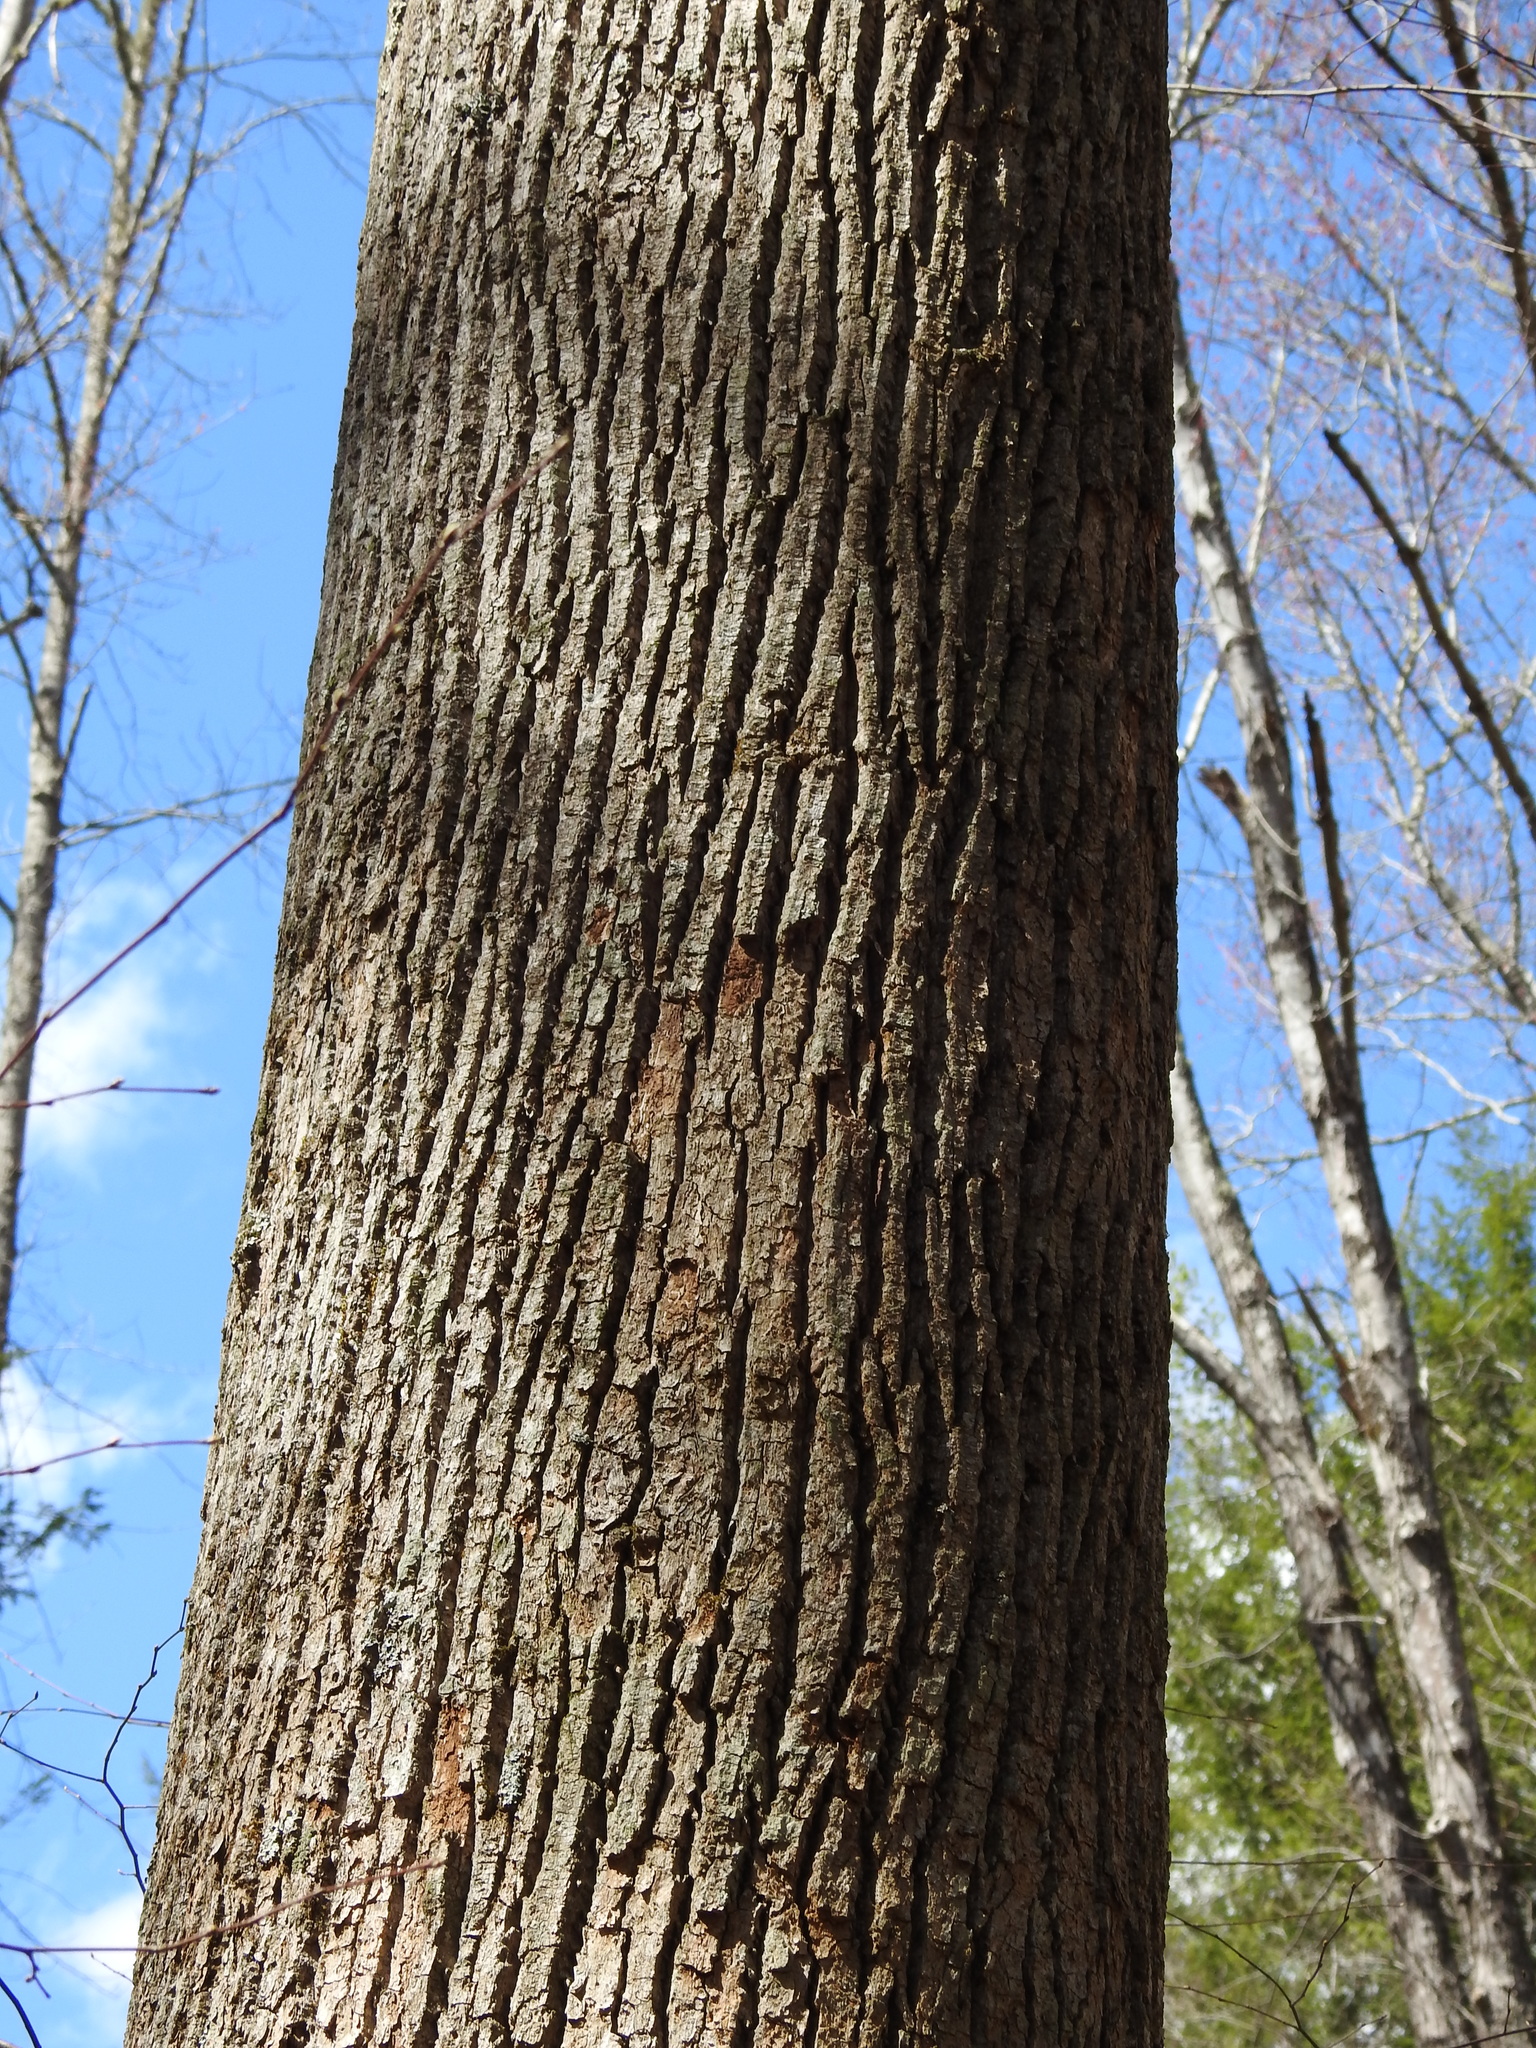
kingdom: Plantae
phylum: Tracheophyta
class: Magnoliopsida
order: Magnoliales
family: Magnoliaceae
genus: Liriodendron
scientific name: Liriodendron tulipifera
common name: Tulip tree
